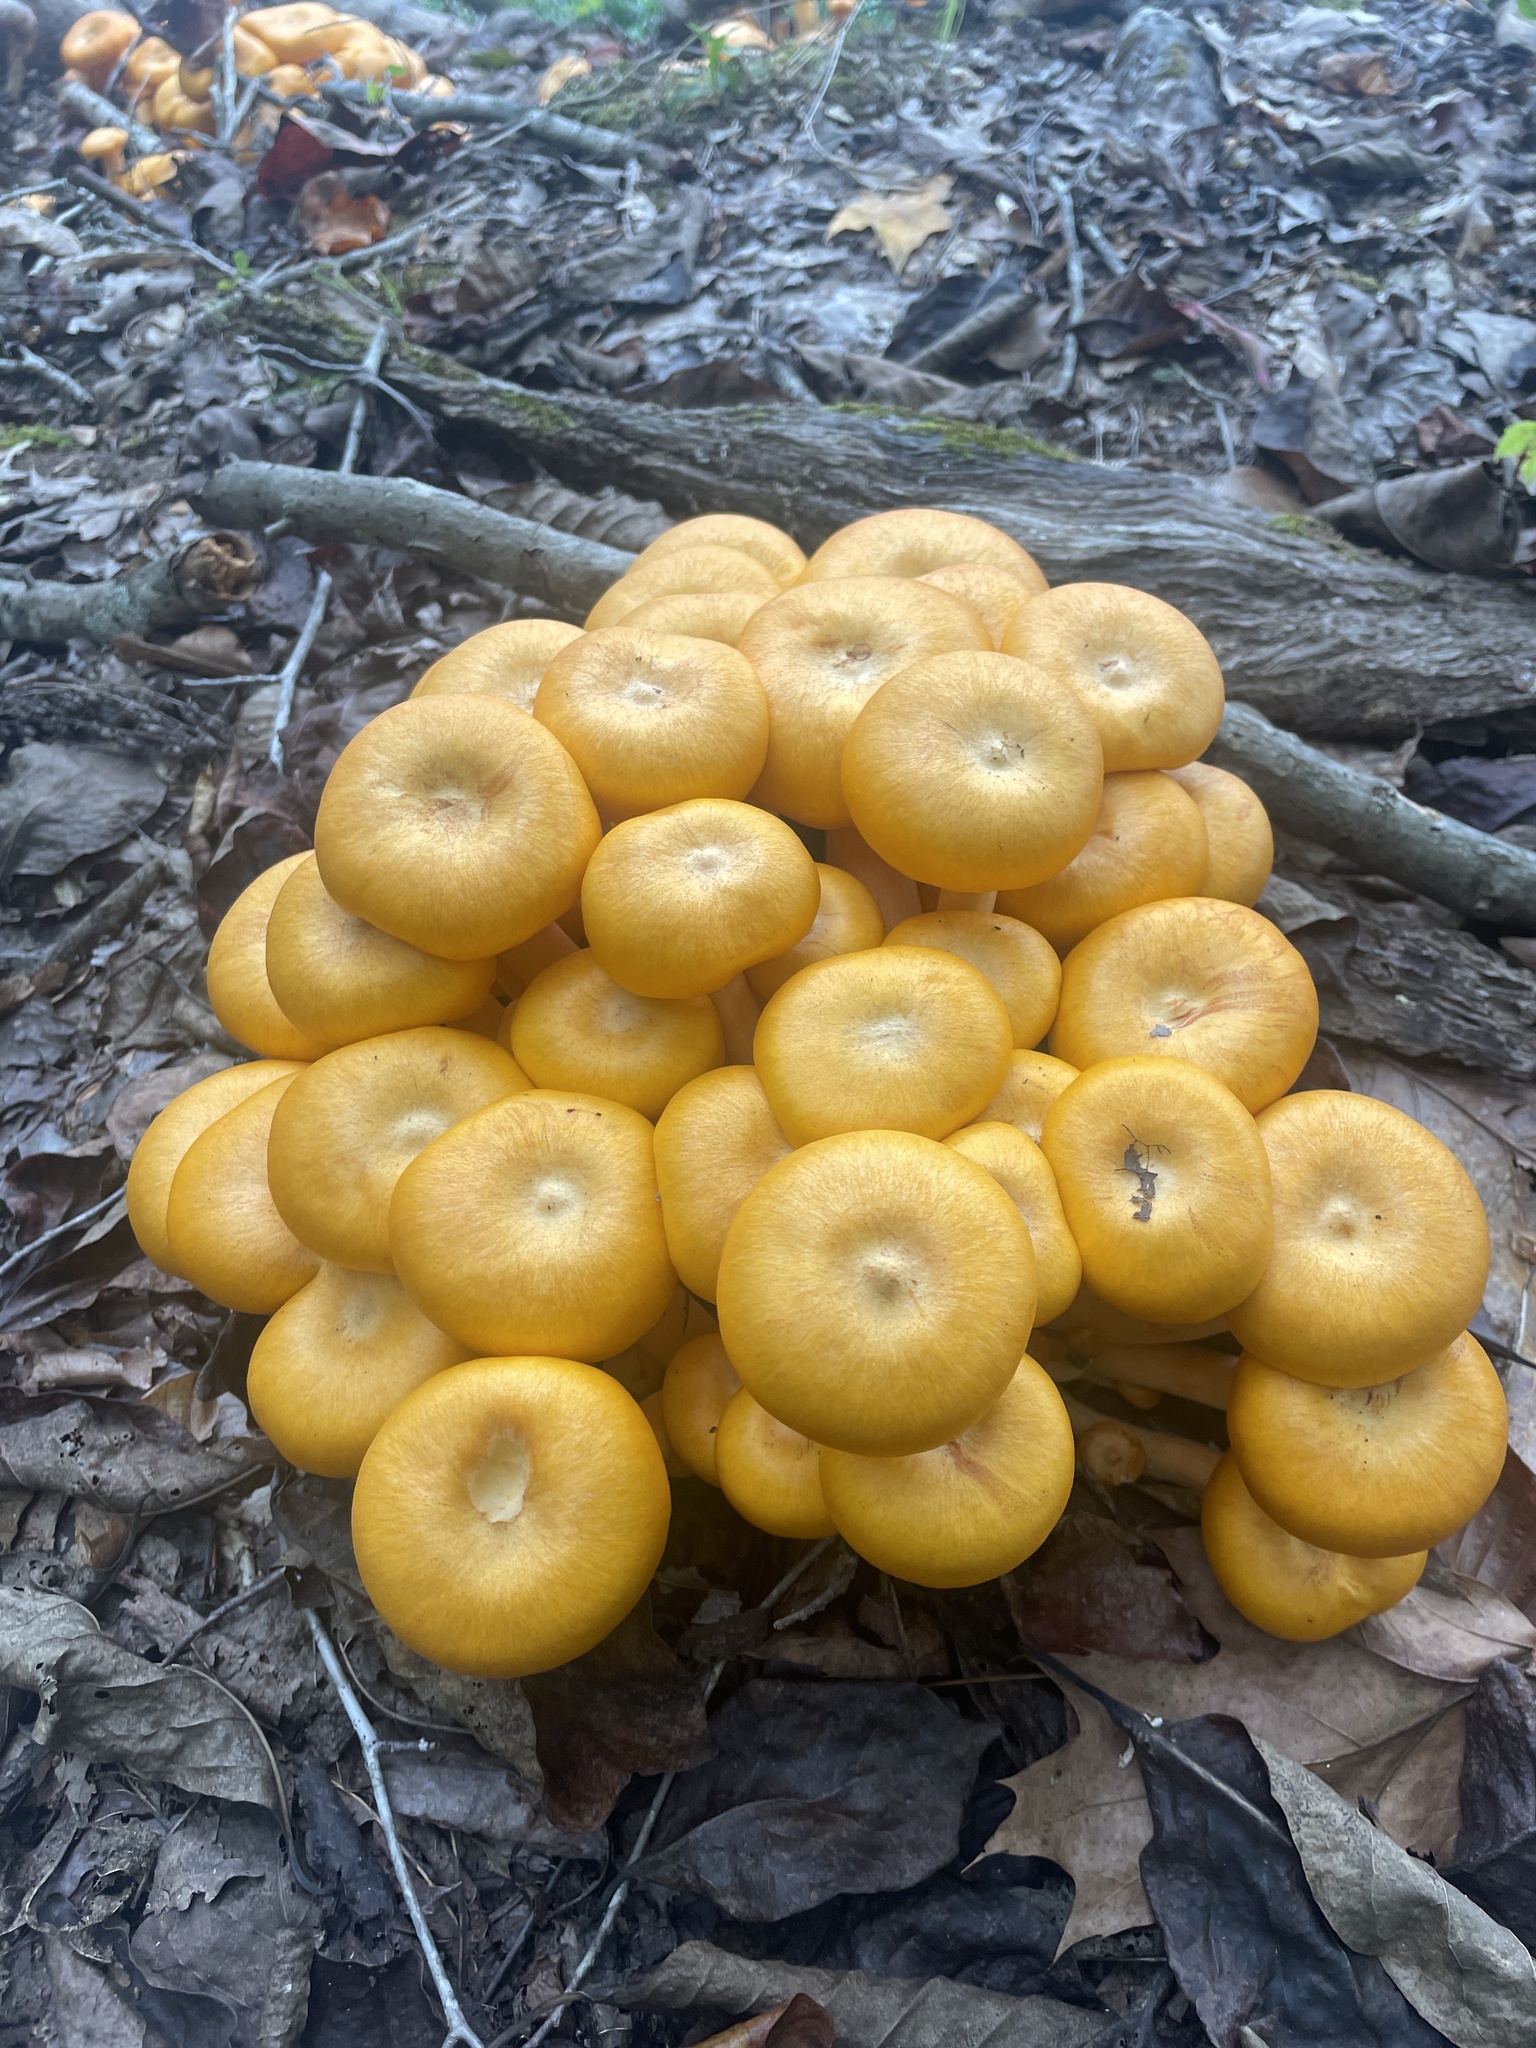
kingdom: Fungi
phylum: Basidiomycota
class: Agaricomycetes
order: Agaricales
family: Physalacriaceae
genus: Desarmillaria
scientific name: Desarmillaria caespitosa
